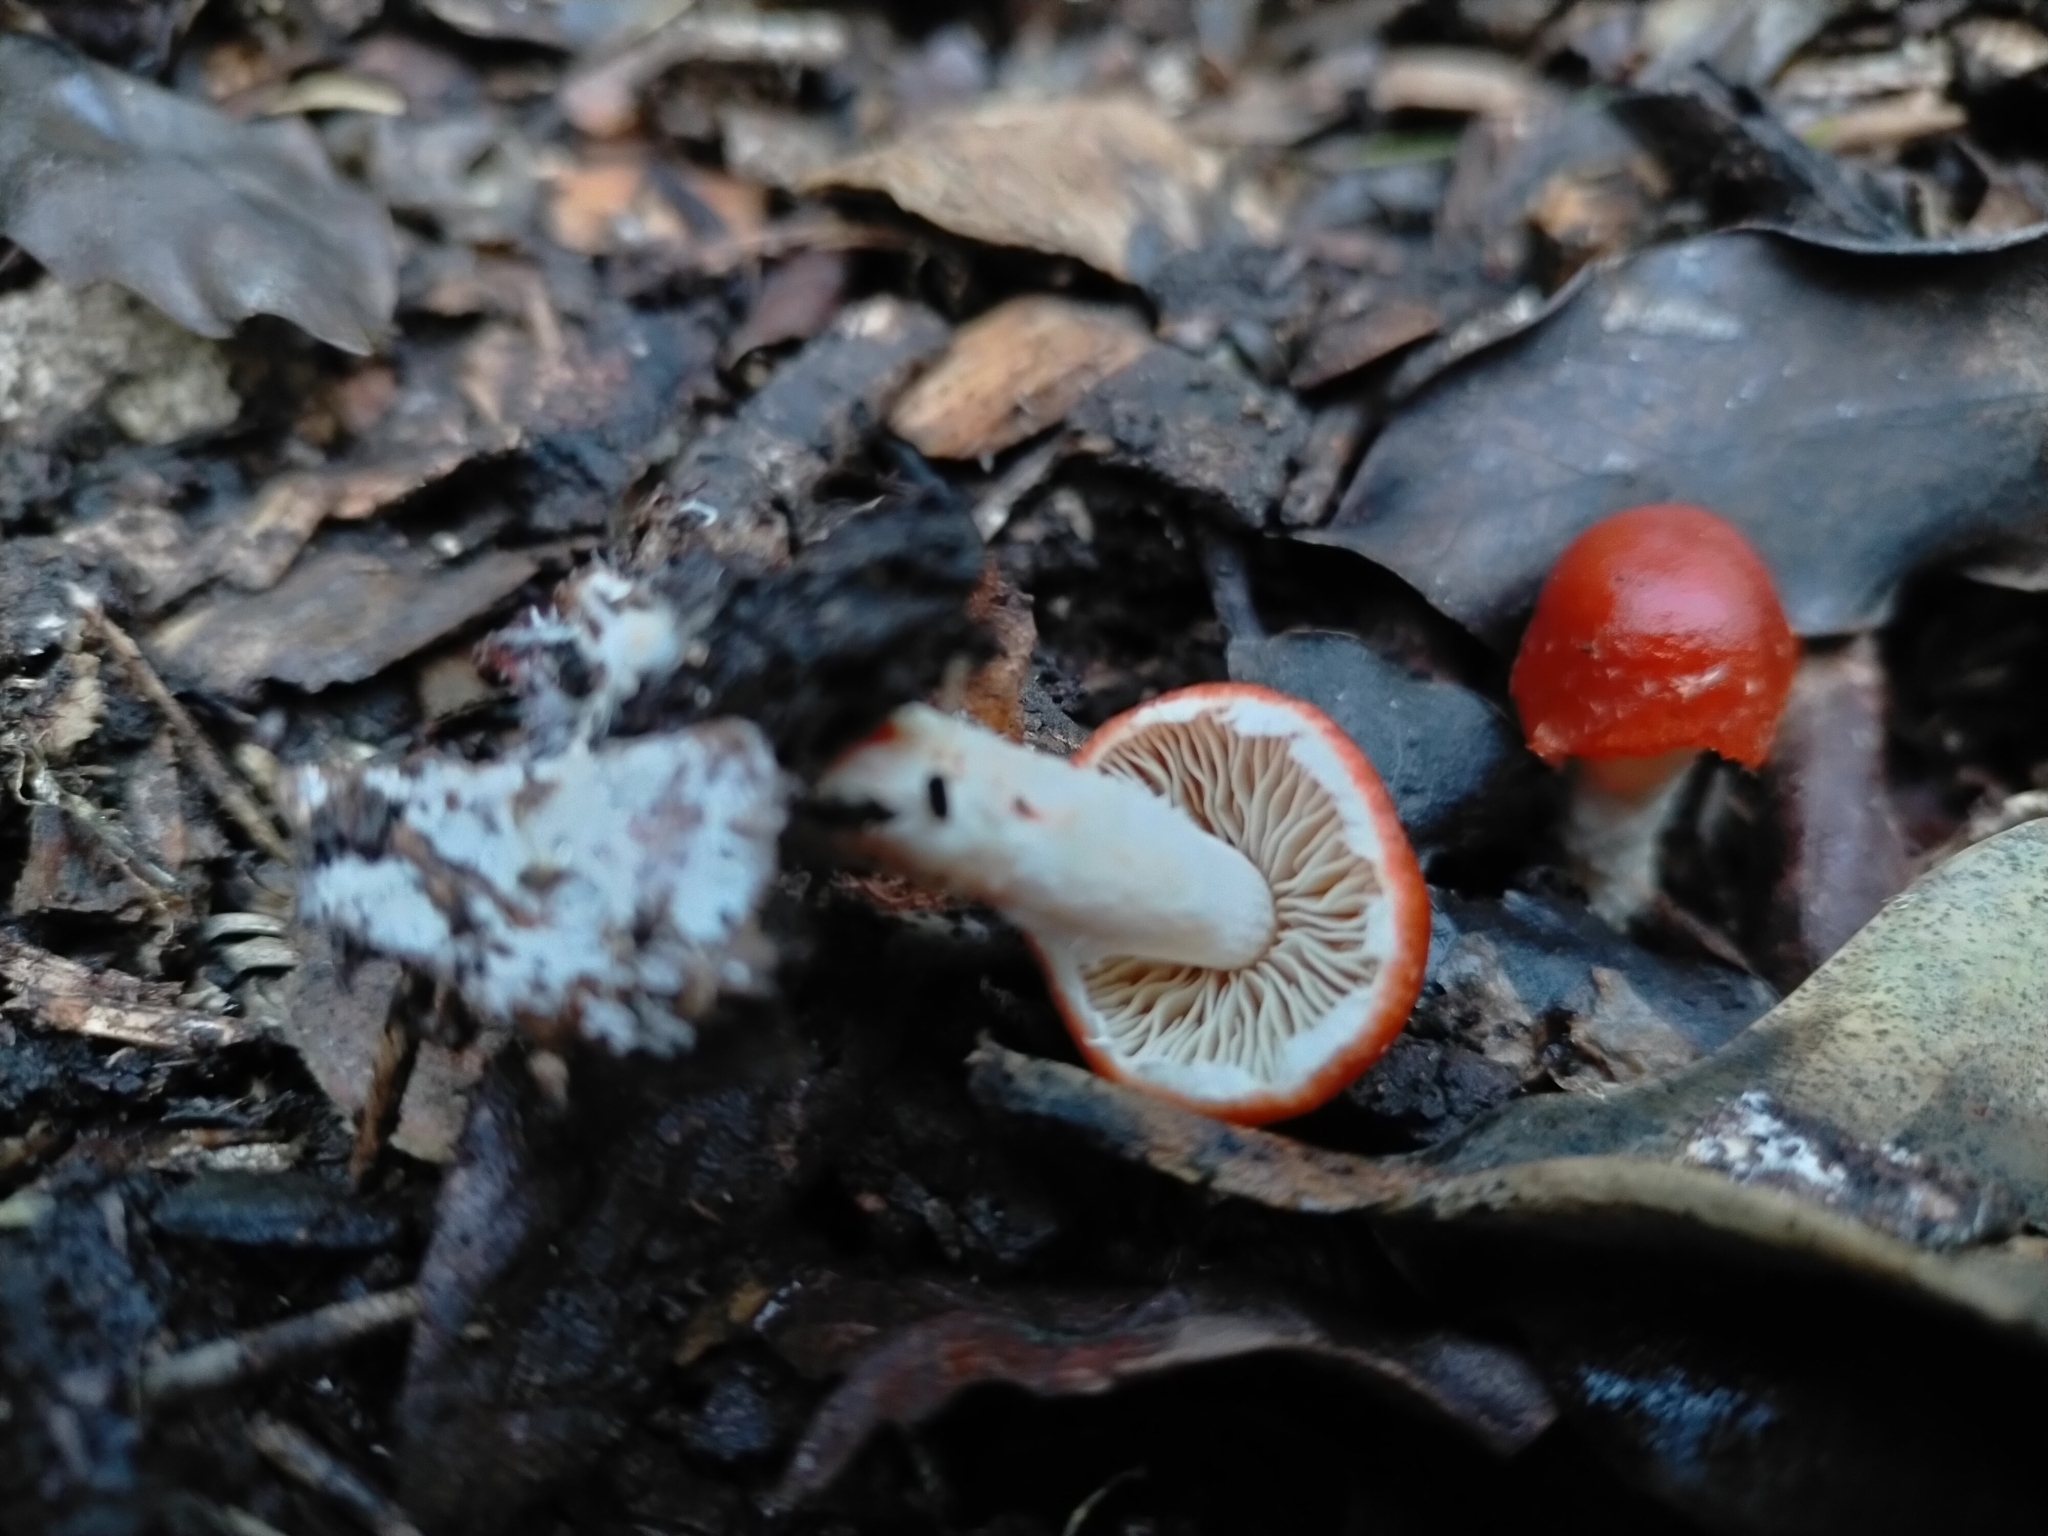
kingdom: Fungi
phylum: Basidiomycota
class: Agaricomycetes
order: Agaricales
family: Strophariaceae
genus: Leratiomyces
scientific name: Leratiomyces ceres
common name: Redlead roundhead
